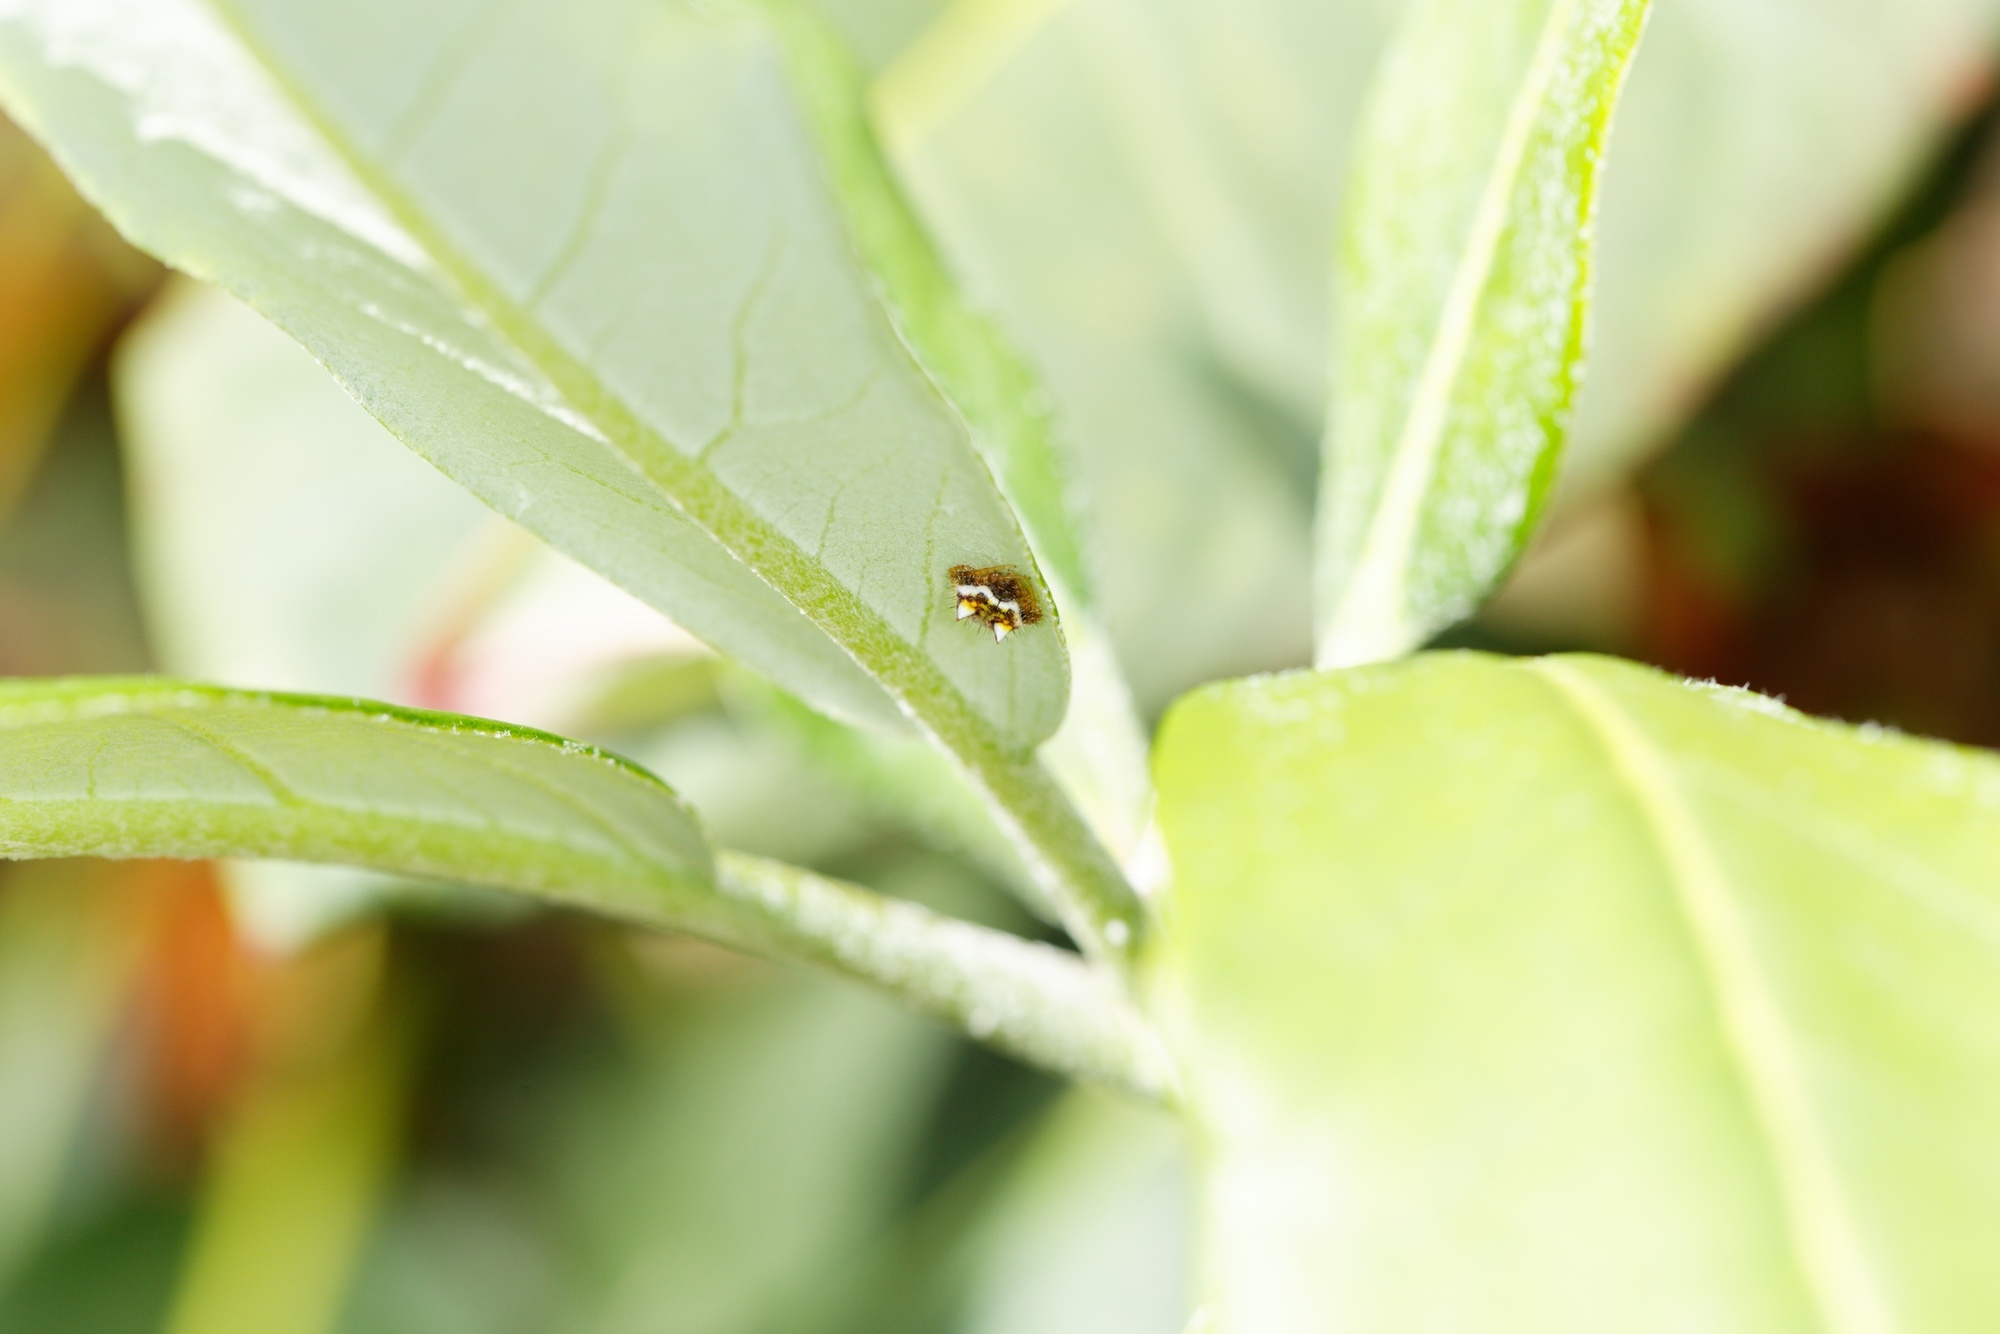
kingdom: Animalia
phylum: Arthropoda
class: Arachnida
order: Araneae
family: Araneidae
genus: Poecilopachys
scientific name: Poecilopachys australasia
